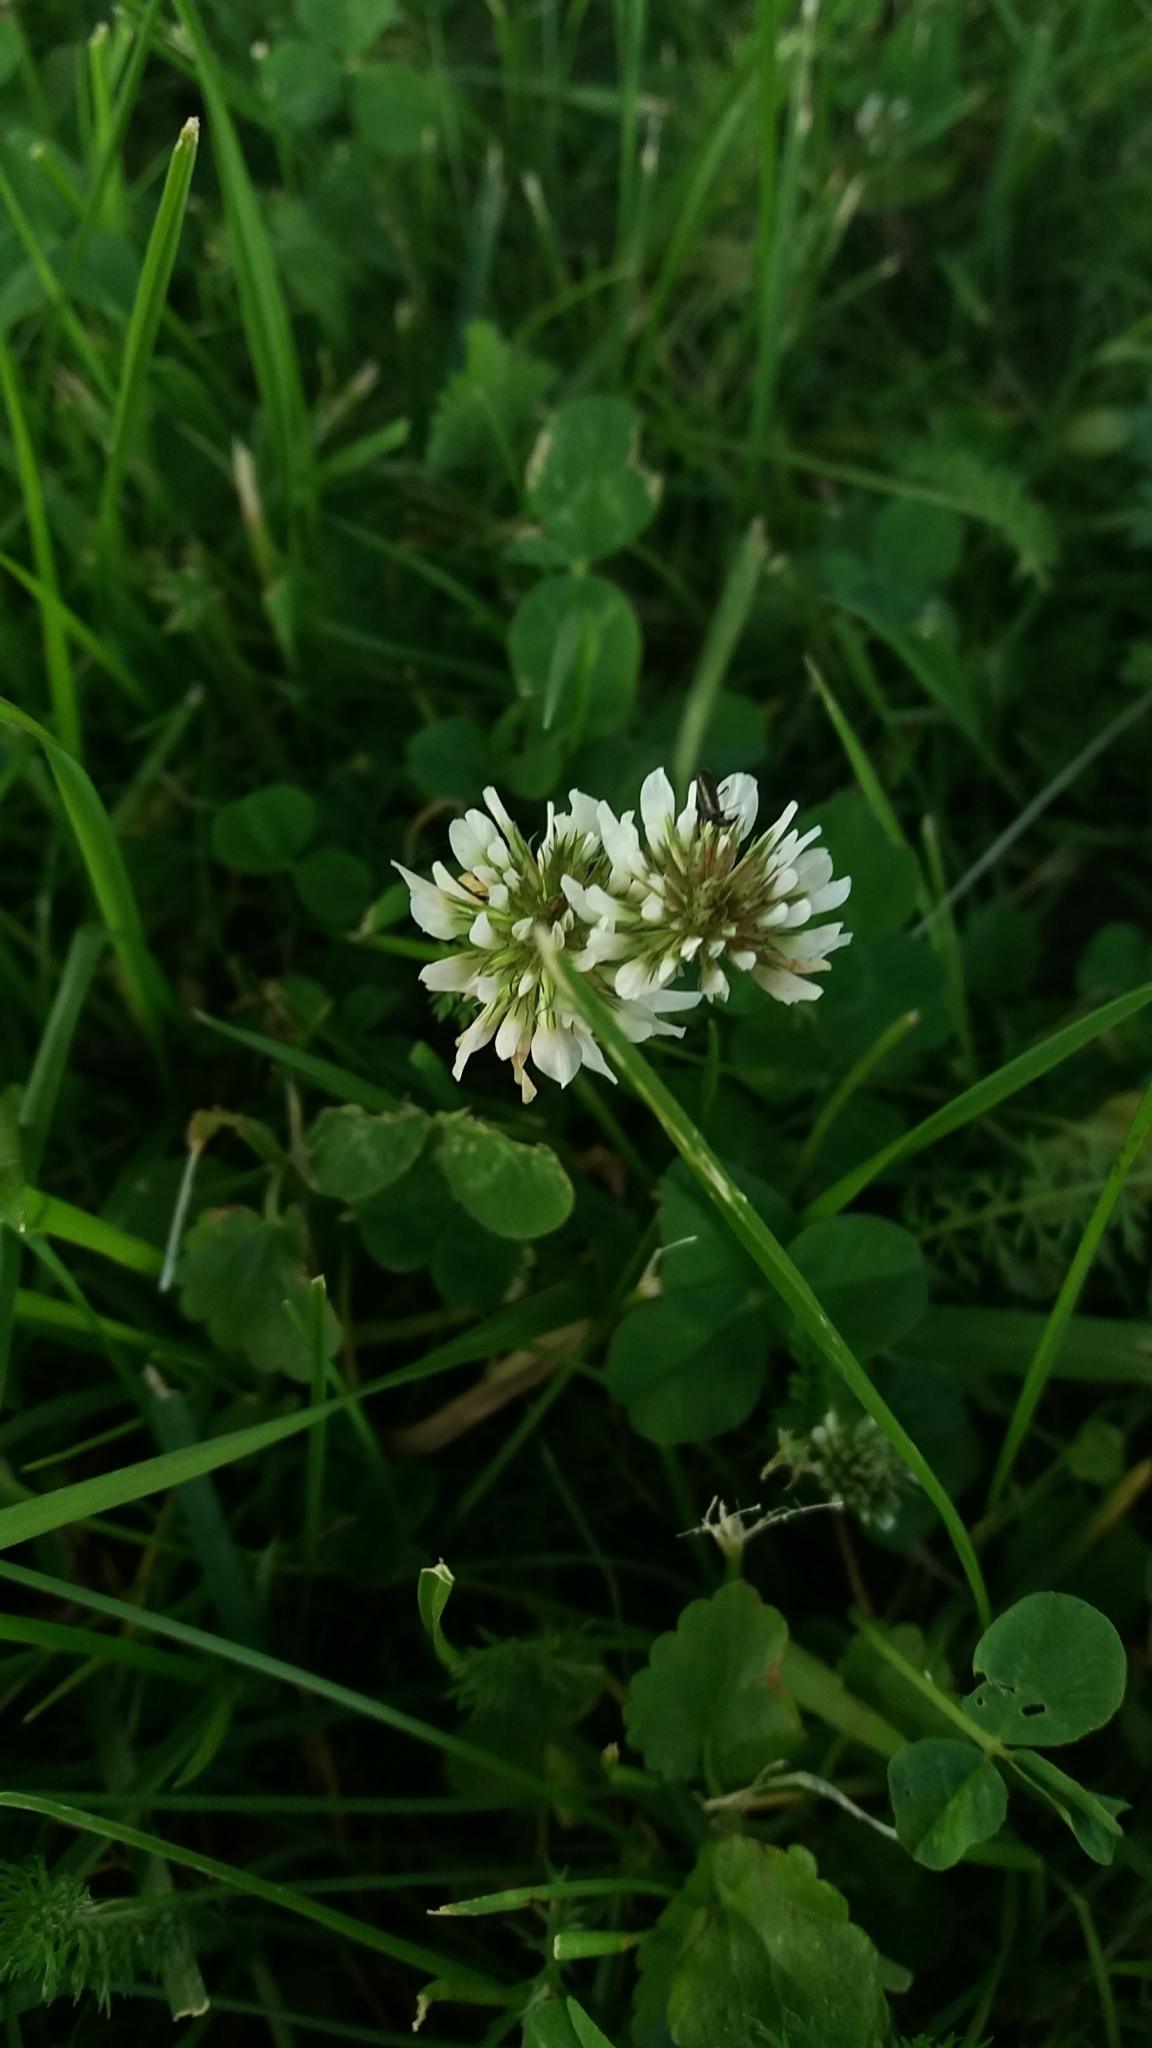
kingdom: Plantae
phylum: Tracheophyta
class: Magnoliopsida
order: Fabales
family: Fabaceae
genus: Trifolium
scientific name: Trifolium repens
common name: White clover
